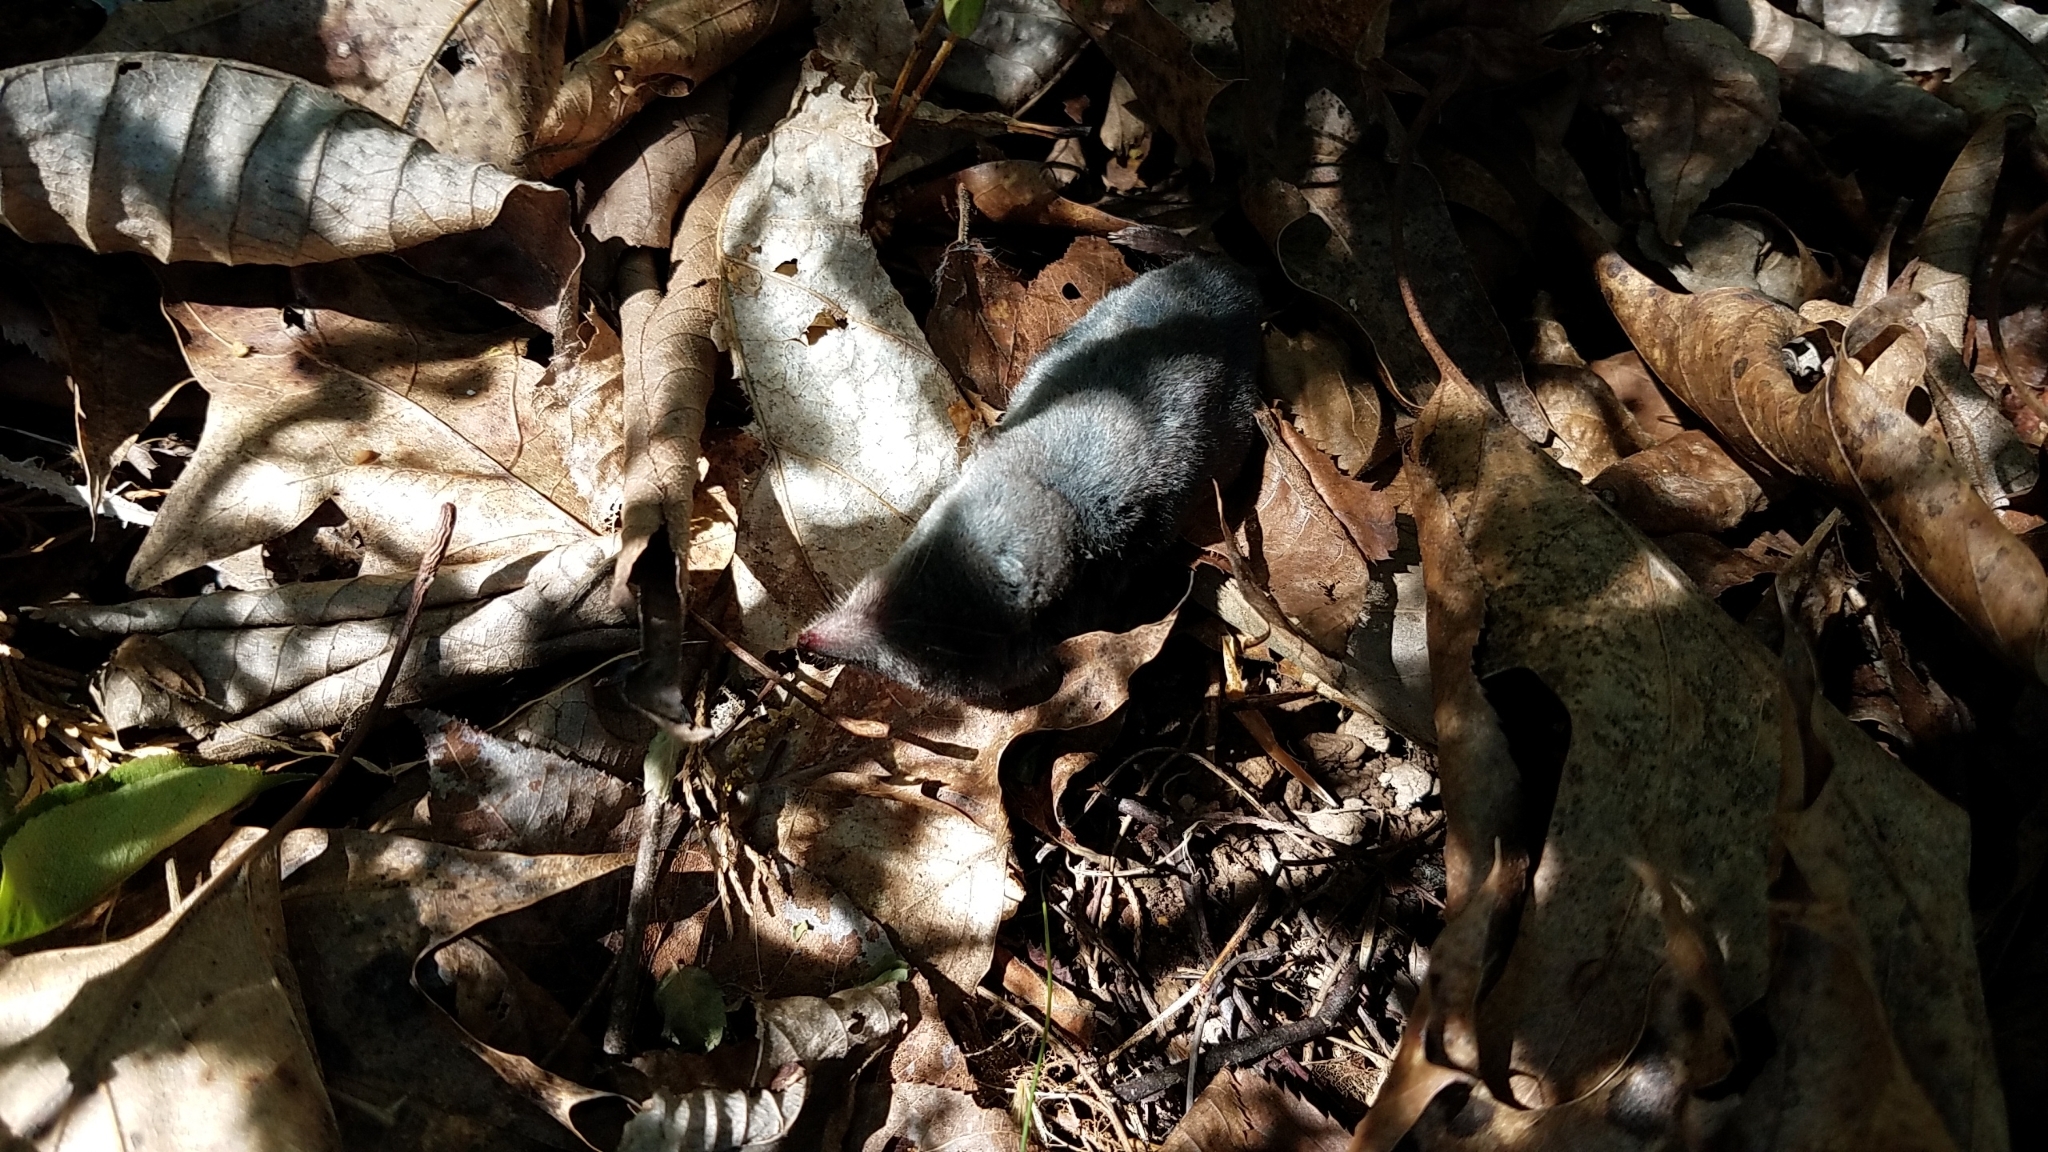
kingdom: Animalia
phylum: Chordata
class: Mammalia
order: Soricomorpha
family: Soricidae
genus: Blarina
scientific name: Blarina brevicauda
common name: Northern short-tailed shrew
